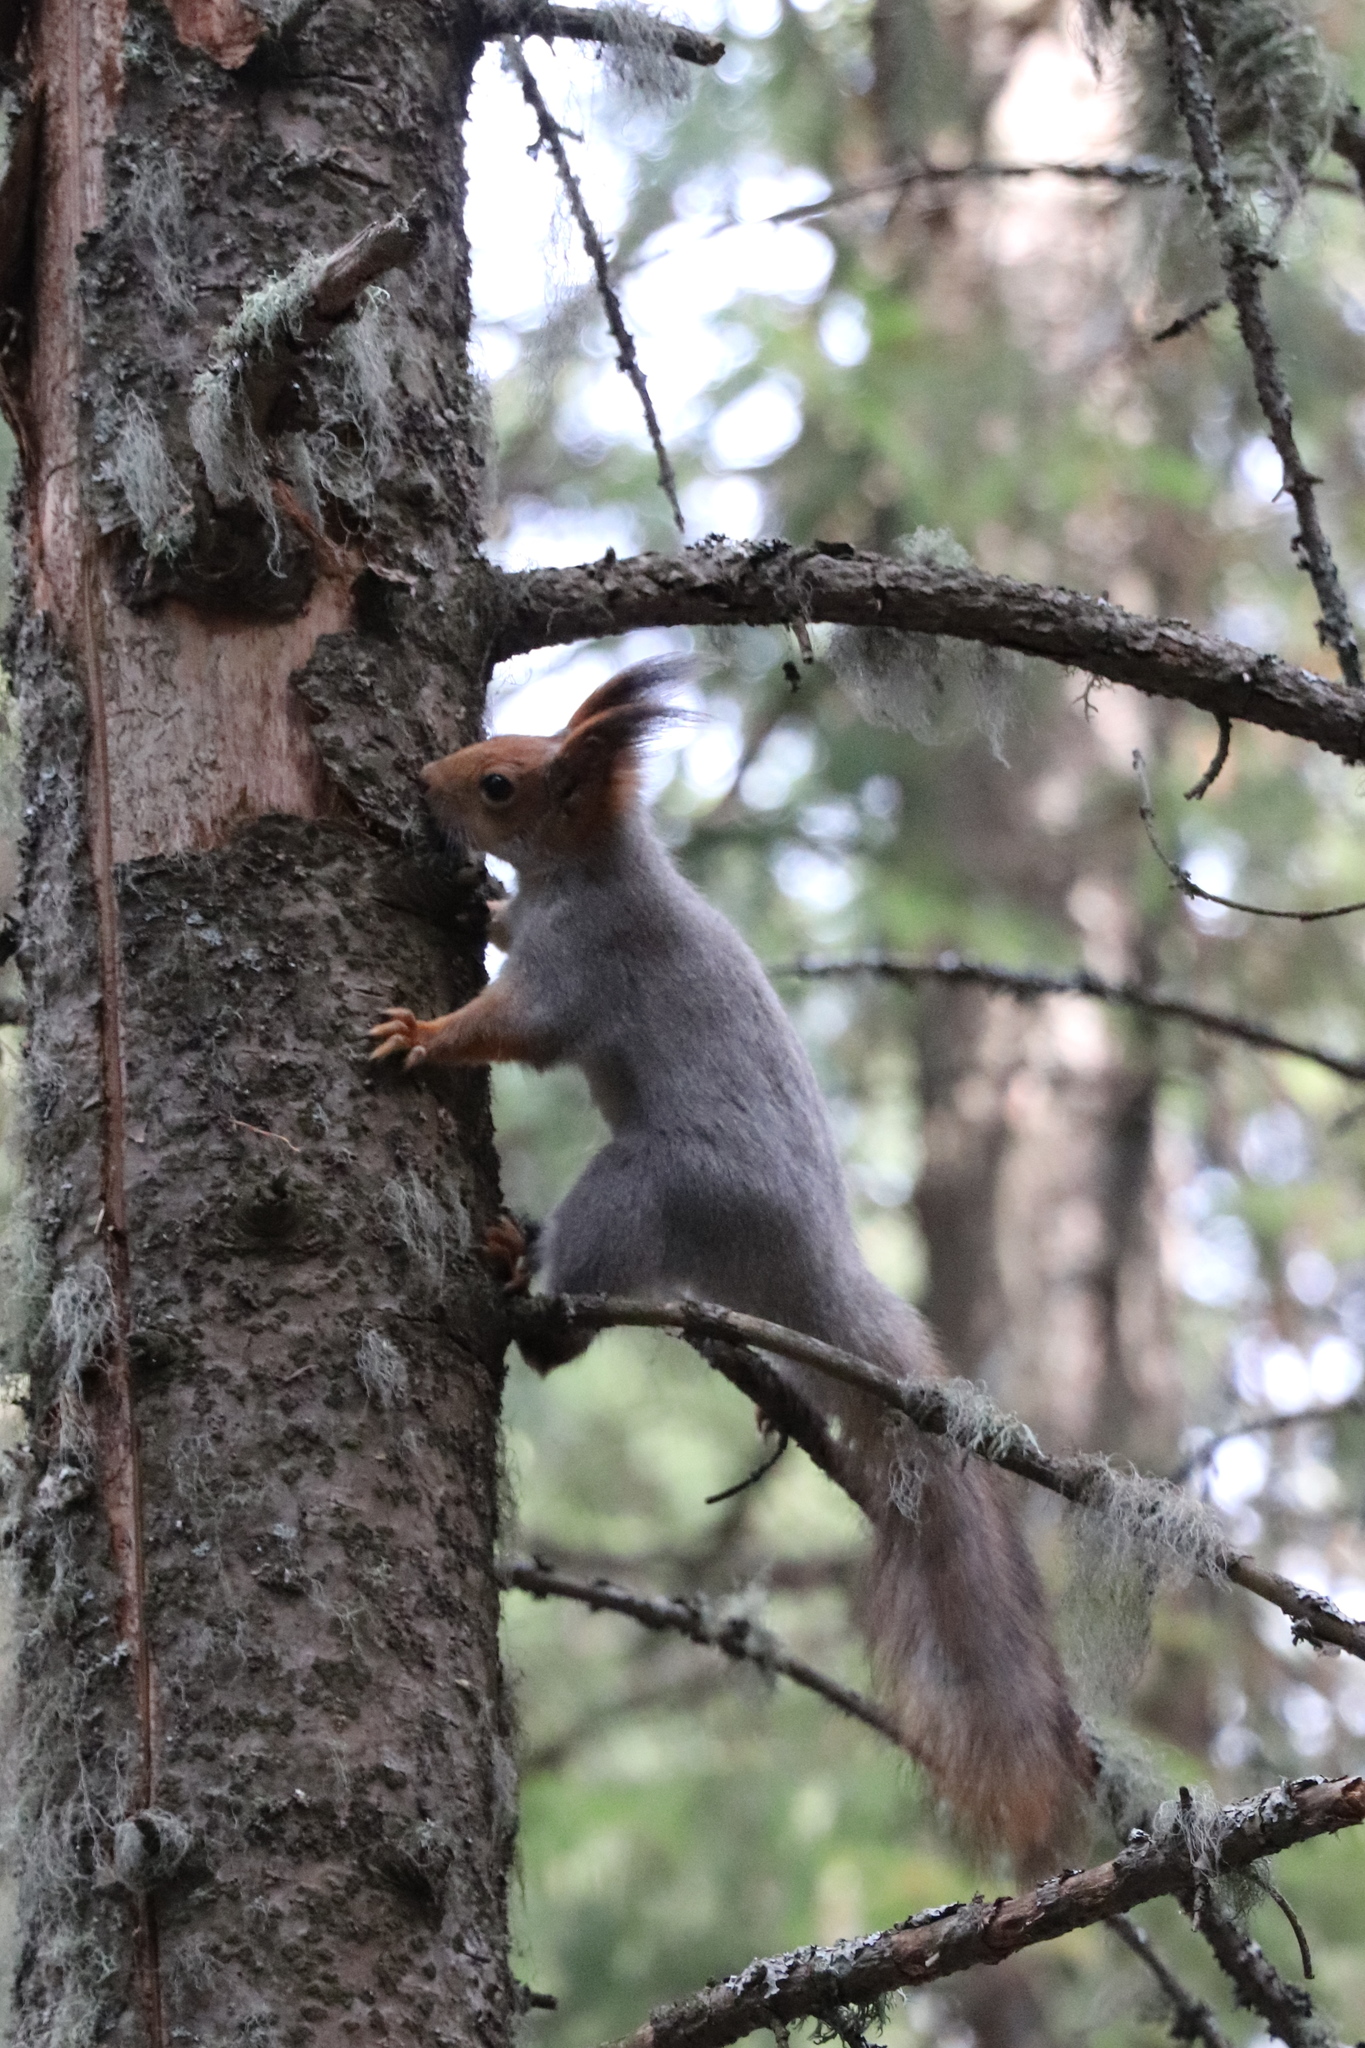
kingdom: Animalia
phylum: Chordata
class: Mammalia
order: Rodentia
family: Sciuridae
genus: Sciurus
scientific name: Sciurus vulgaris
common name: Eurasian red squirrel
